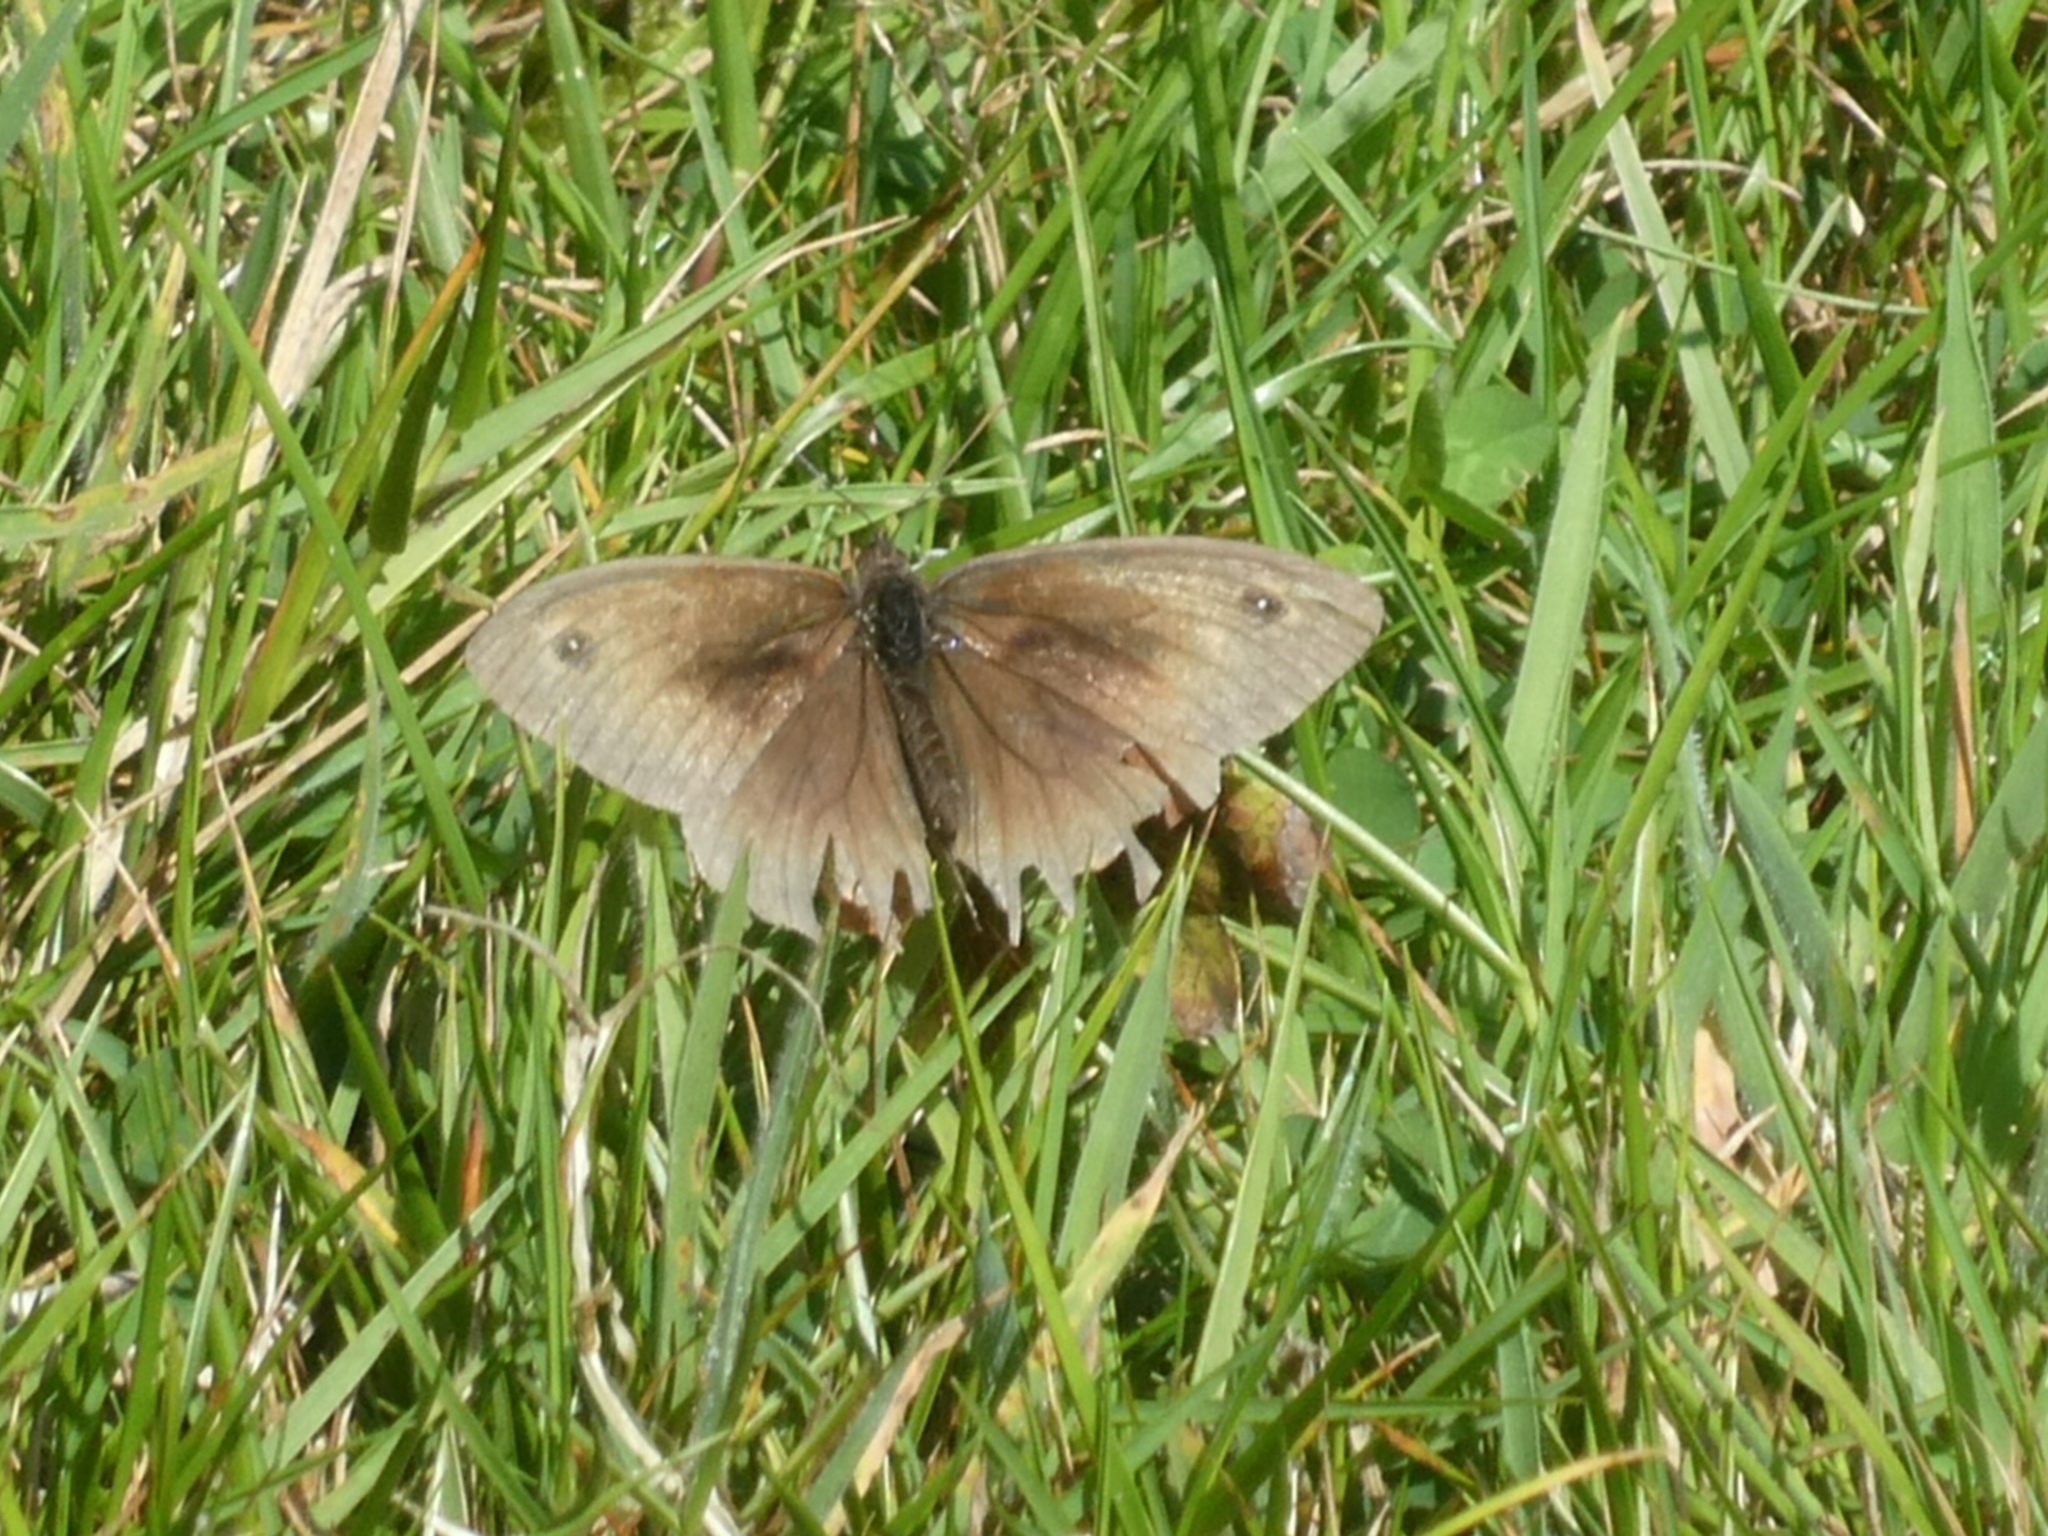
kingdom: Animalia
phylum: Arthropoda
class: Insecta
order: Lepidoptera
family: Nymphalidae
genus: Maniola
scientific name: Maniola jurtina
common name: Meadow brown
